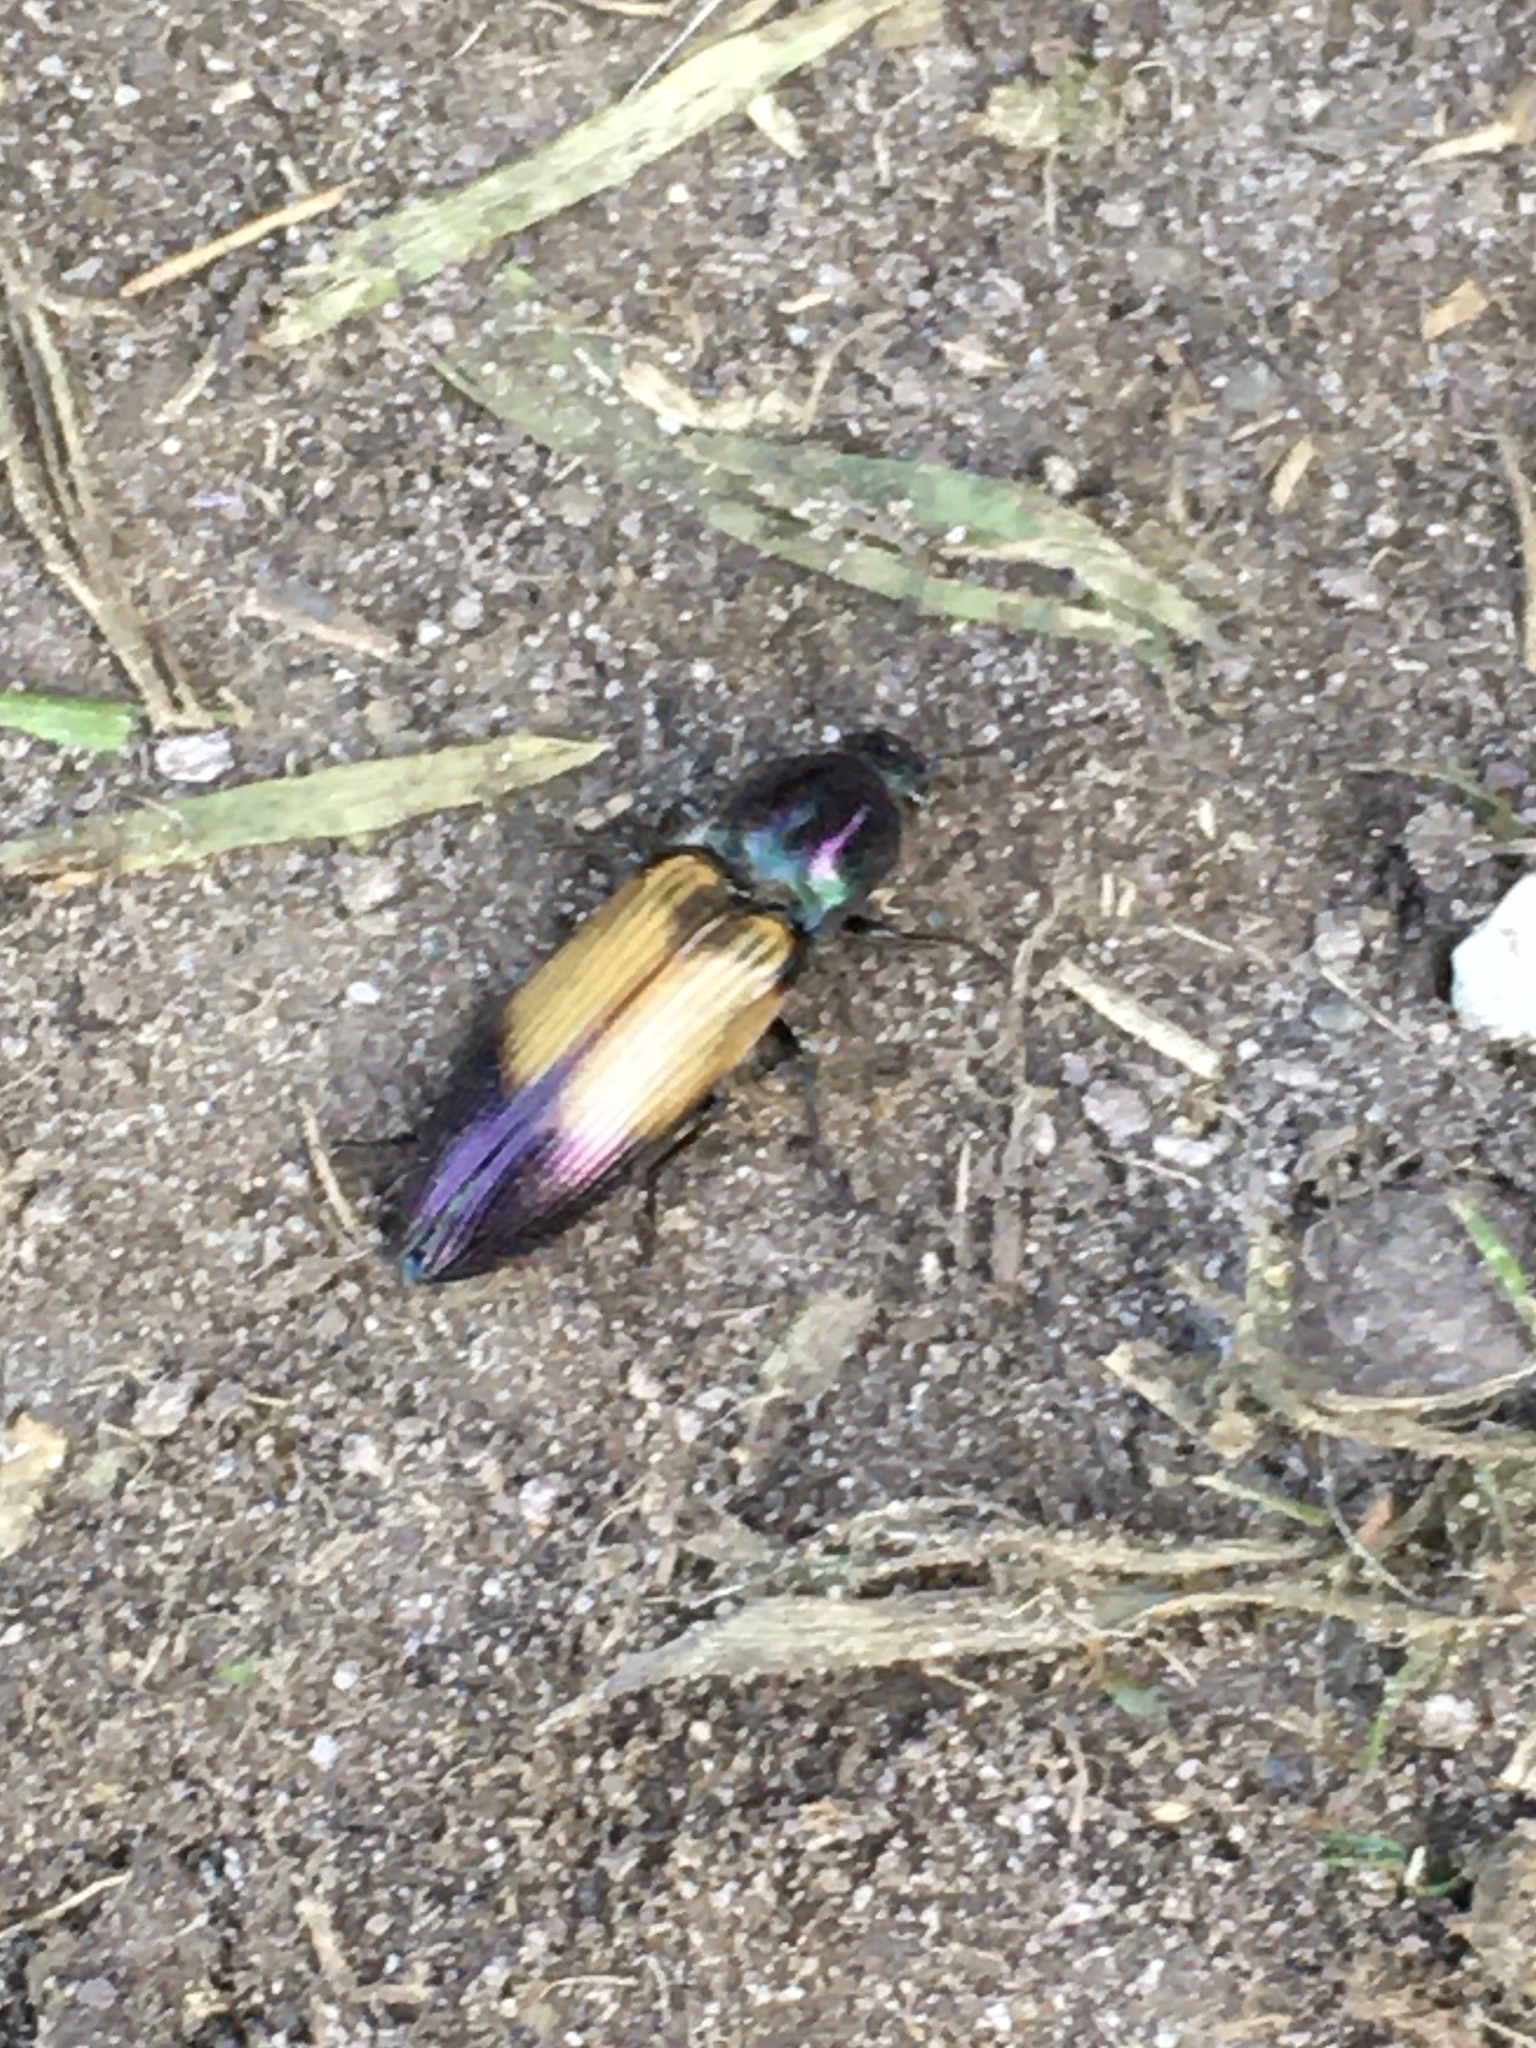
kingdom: Animalia
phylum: Arthropoda
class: Insecta
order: Coleoptera
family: Elateridae
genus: Ctenicera
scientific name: Ctenicera cuprea
